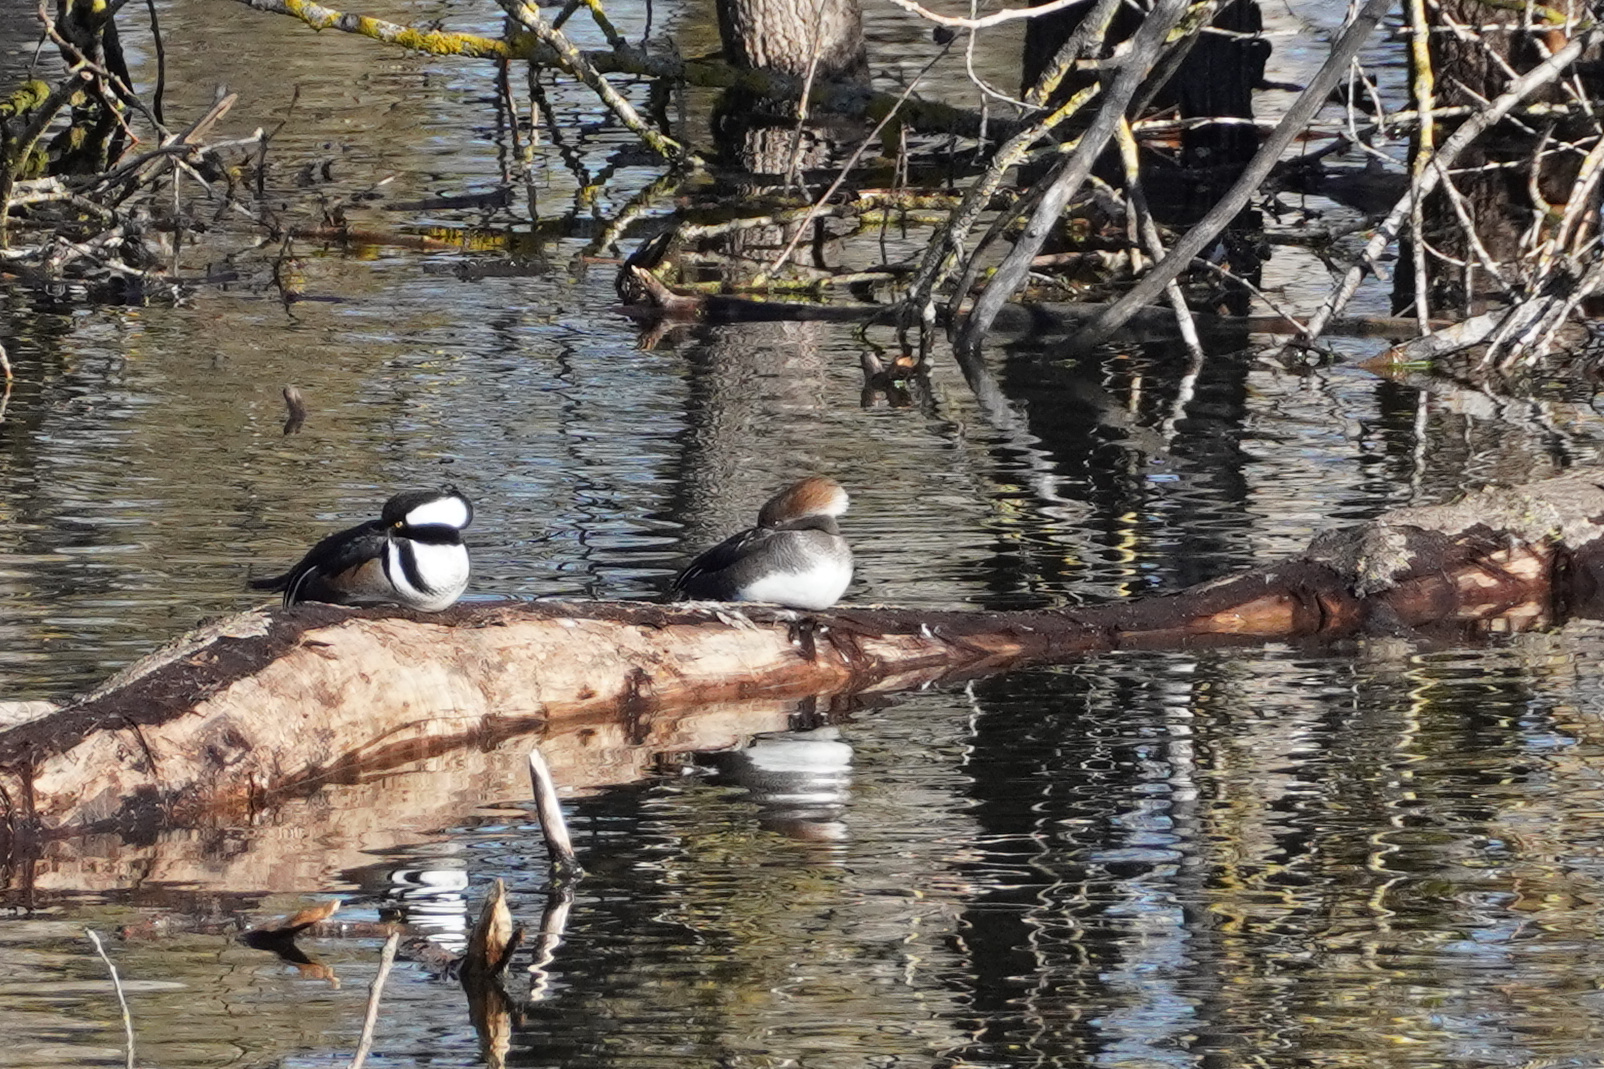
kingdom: Animalia
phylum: Chordata
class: Aves
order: Anseriformes
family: Anatidae
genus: Lophodytes
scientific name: Lophodytes cucullatus
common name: Hooded merganser
